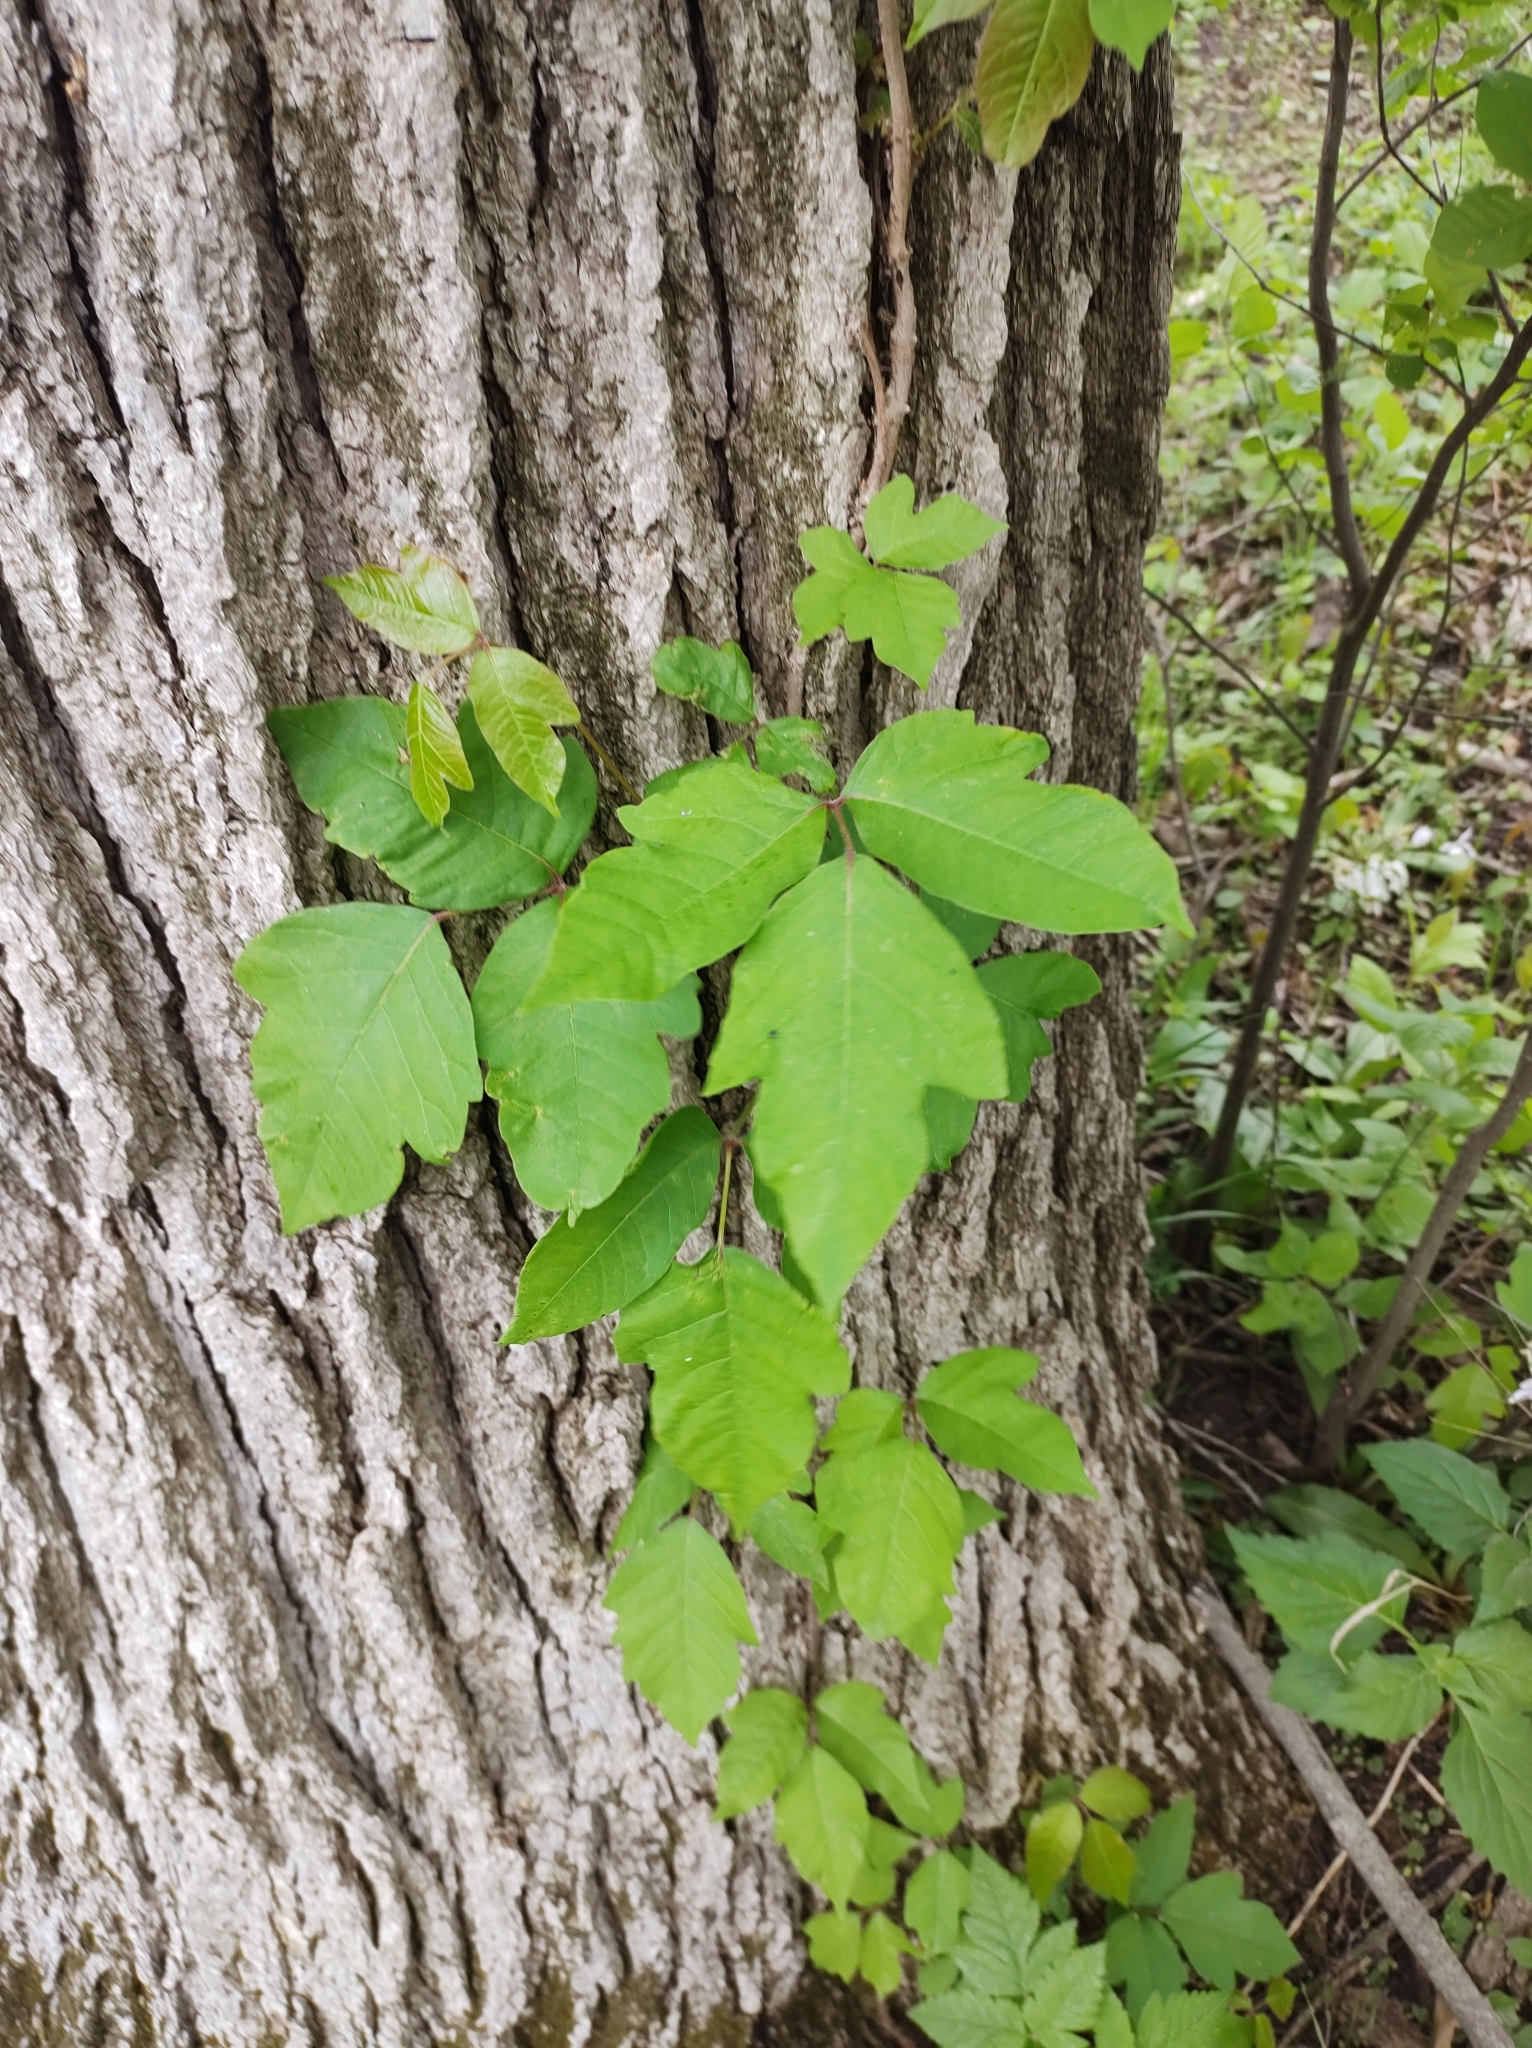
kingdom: Plantae
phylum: Tracheophyta
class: Magnoliopsida
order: Sapindales
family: Anacardiaceae
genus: Toxicodendron
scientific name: Toxicodendron radicans
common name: Poison ivy
